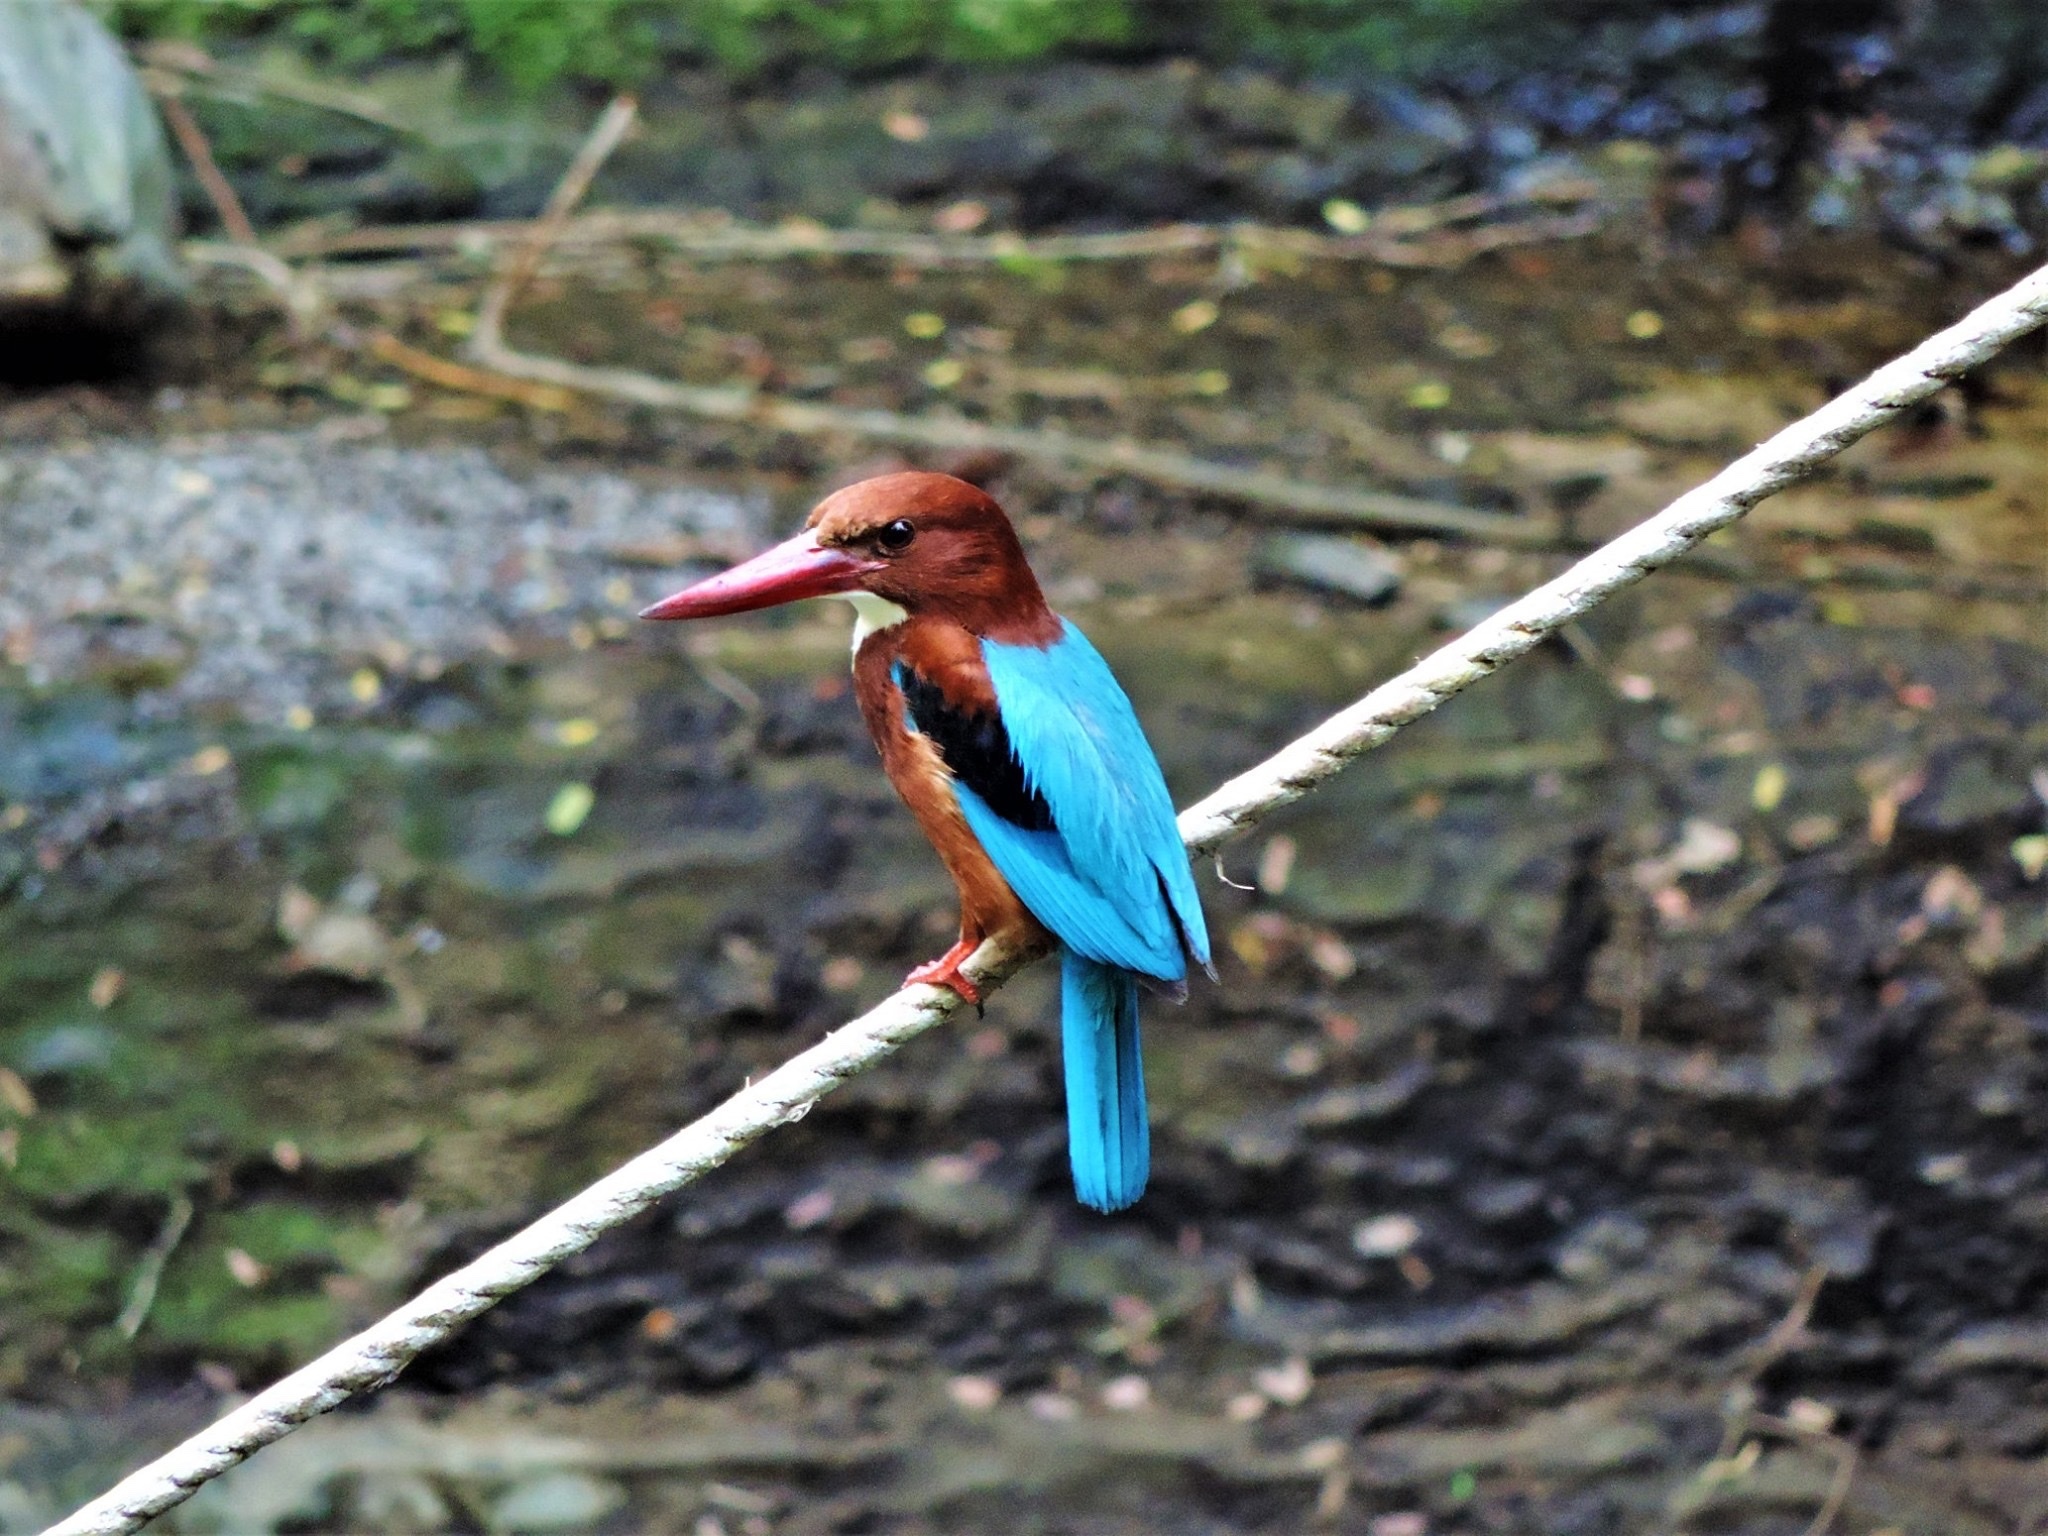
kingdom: Animalia
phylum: Chordata
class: Aves
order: Coraciiformes
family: Alcedinidae
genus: Halcyon
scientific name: Halcyon smyrnensis
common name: White-throated kingfisher
